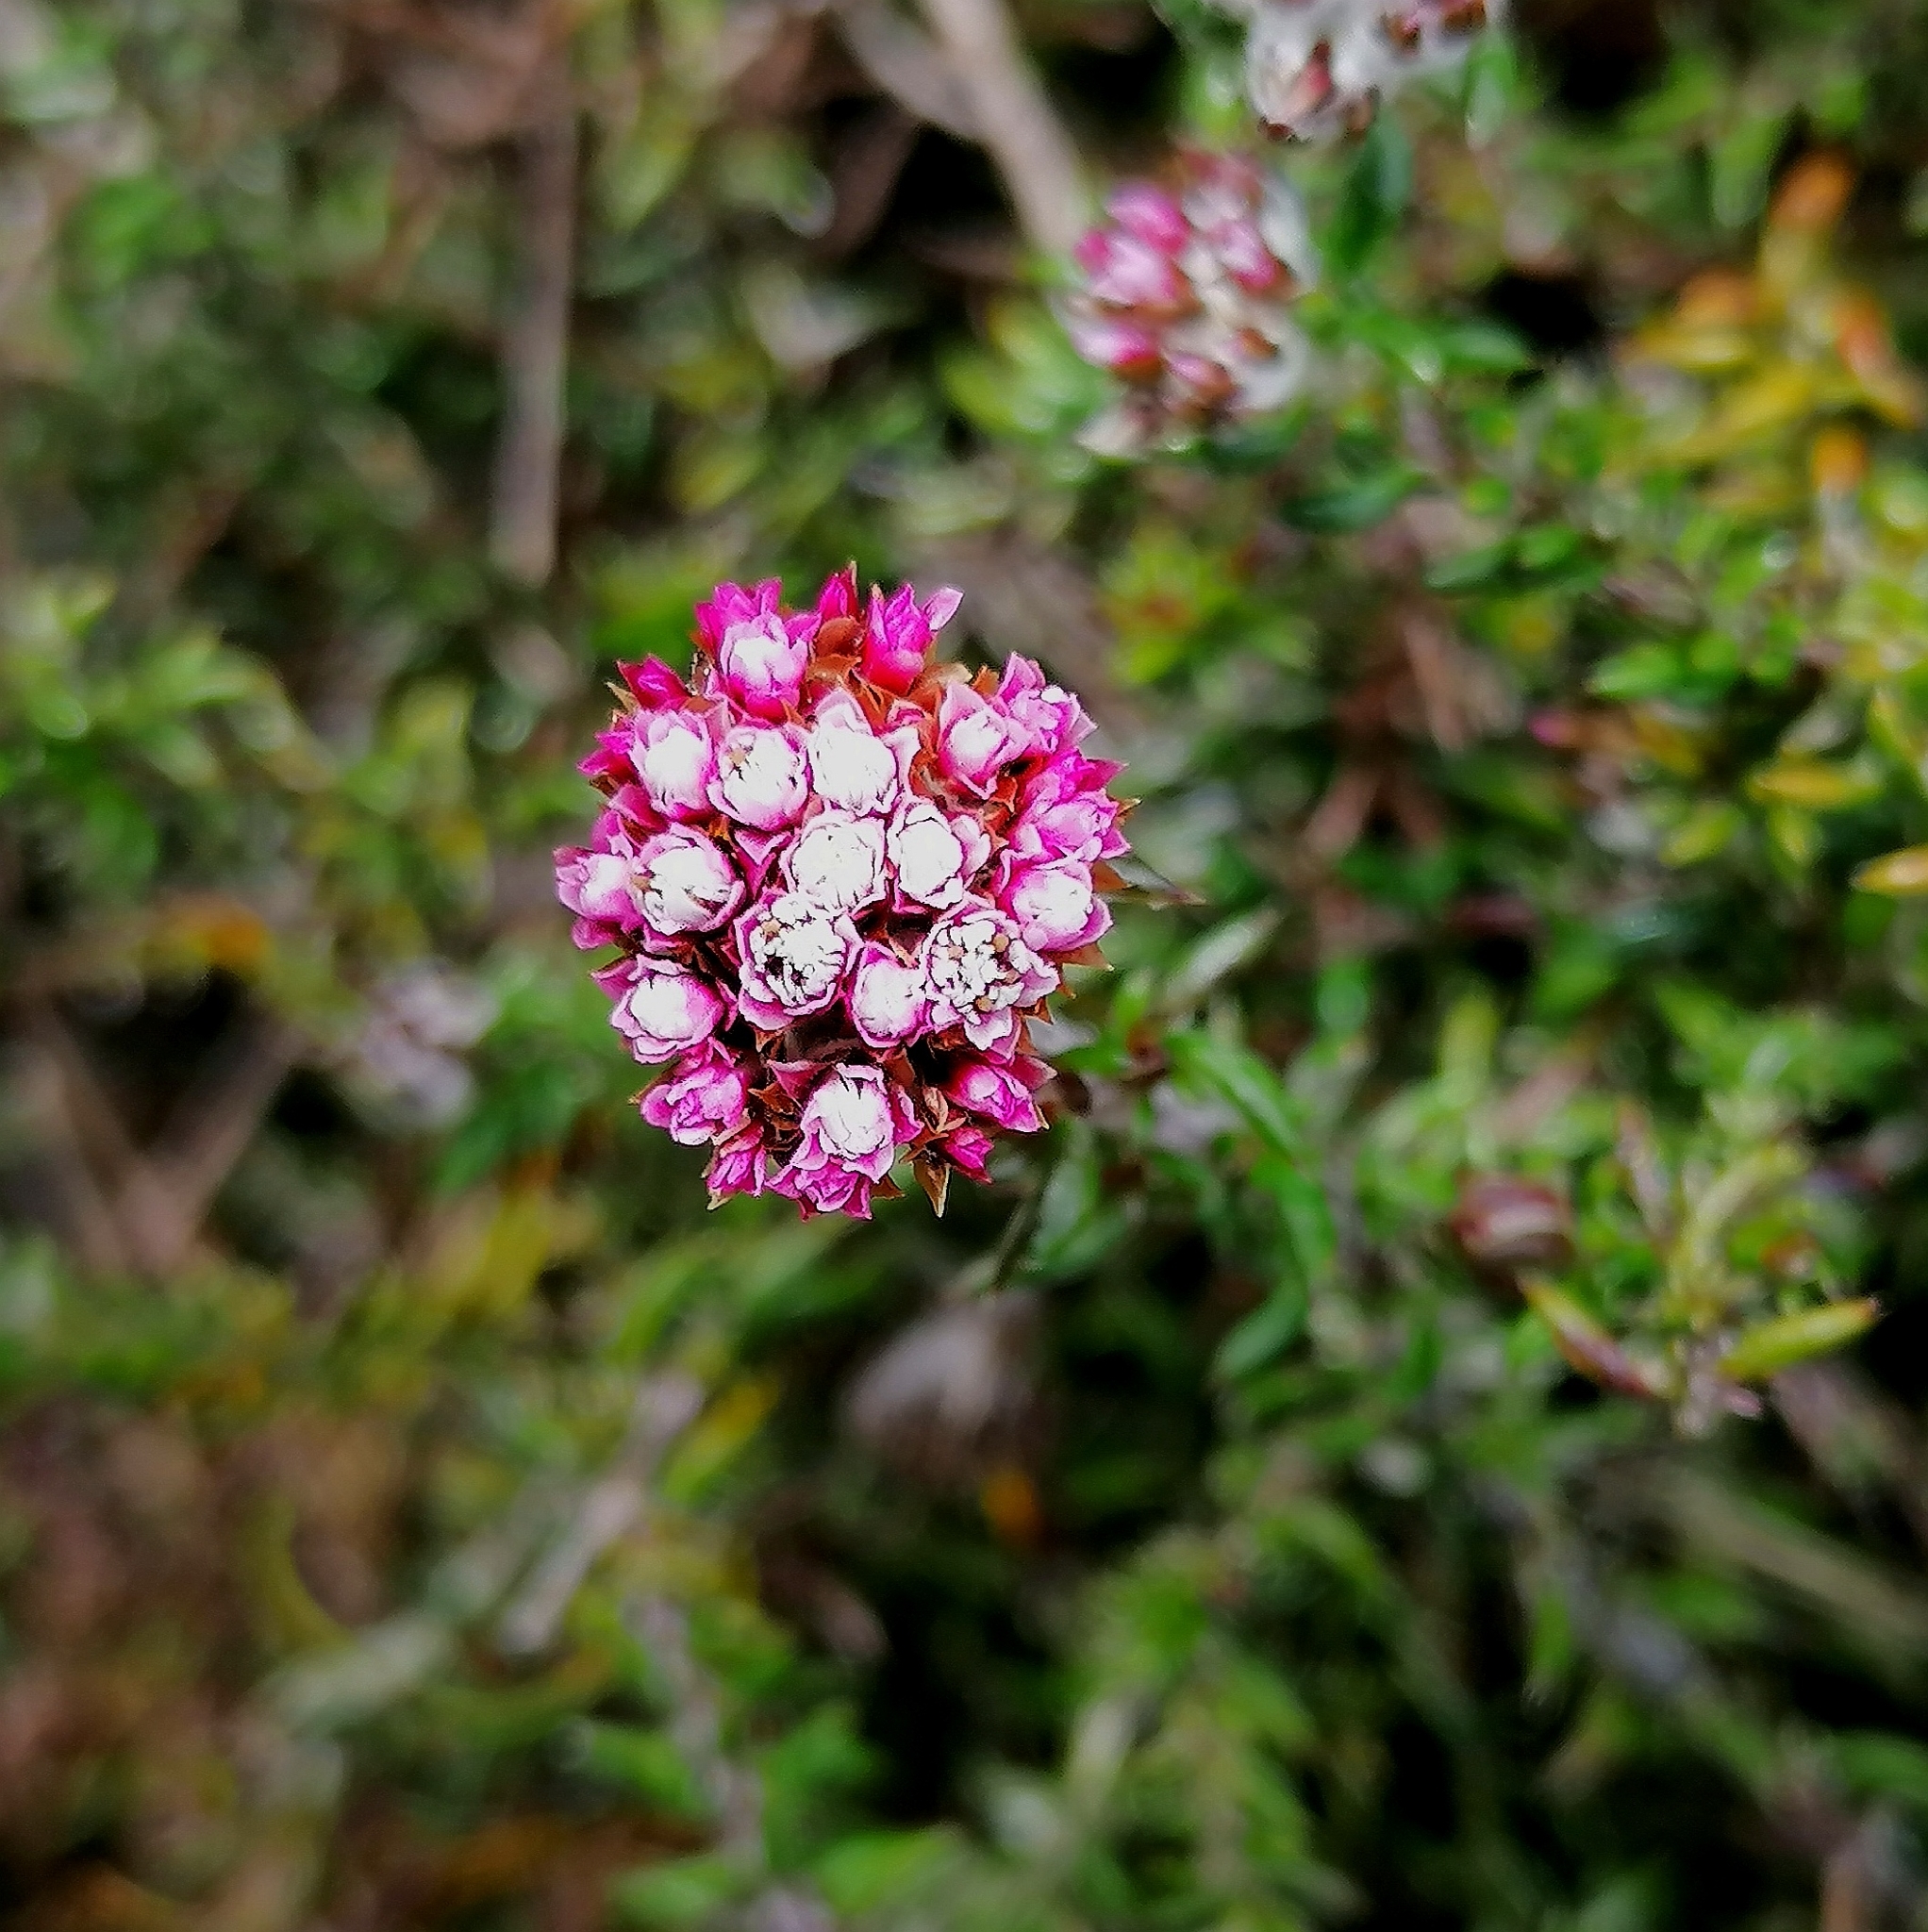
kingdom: Plantae
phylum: Tracheophyta
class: Magnoliopsida
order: Asterales
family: Asteraceae
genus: Metalasia
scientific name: Metalasia divergens
